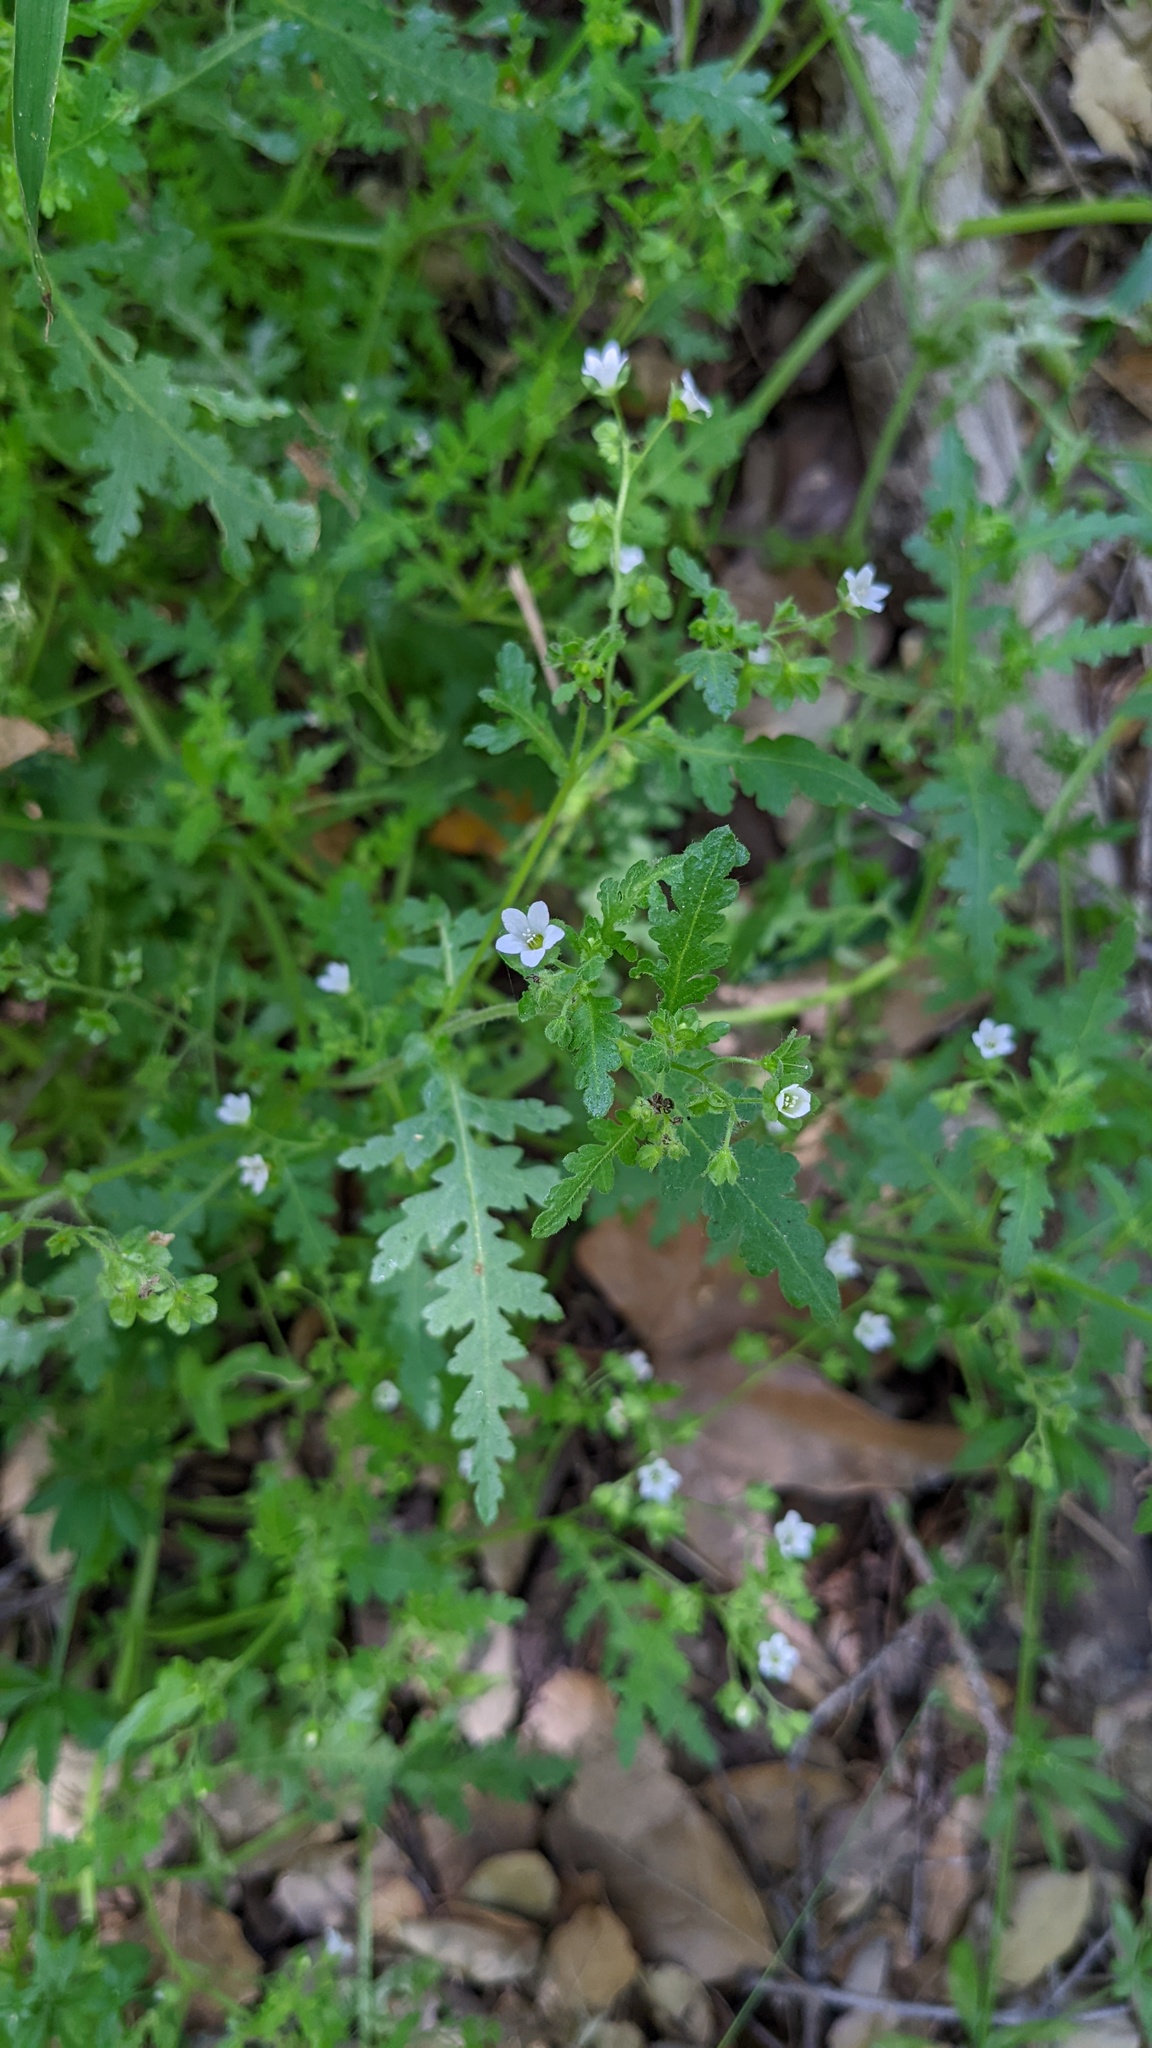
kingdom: Plantae
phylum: Tracheophyta
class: Magnoliopsida
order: Boraginales
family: Hydrophyllaceae
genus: Eucrypta
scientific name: Eucrypta chrysanthemifolia
